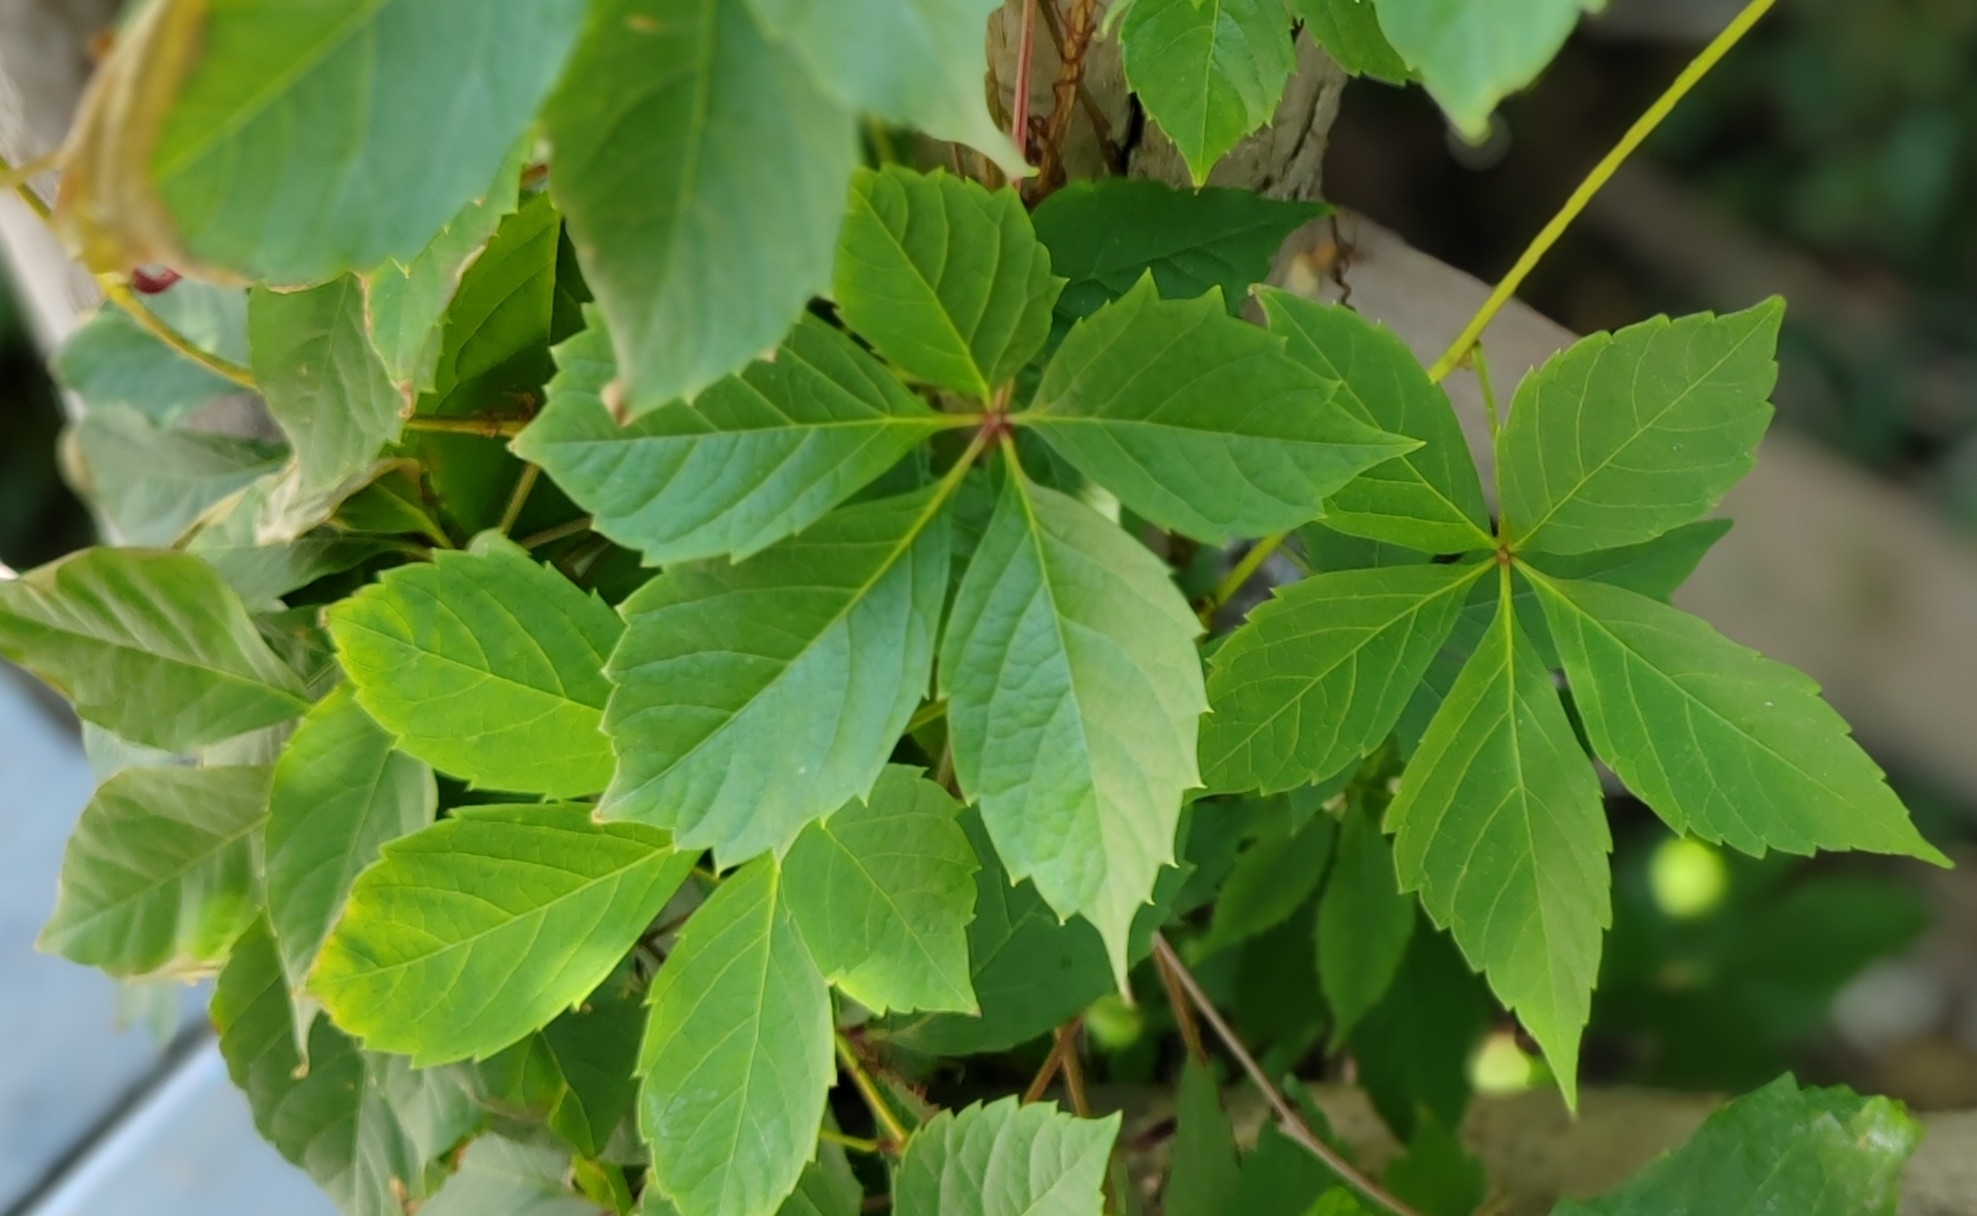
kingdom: Plantae
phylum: Tracheophyta
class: Magnoliopsida
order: Vitales
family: Vitaceae
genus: Parthenocissus
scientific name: Parthenocissus inserta
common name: False virginia-creeper
